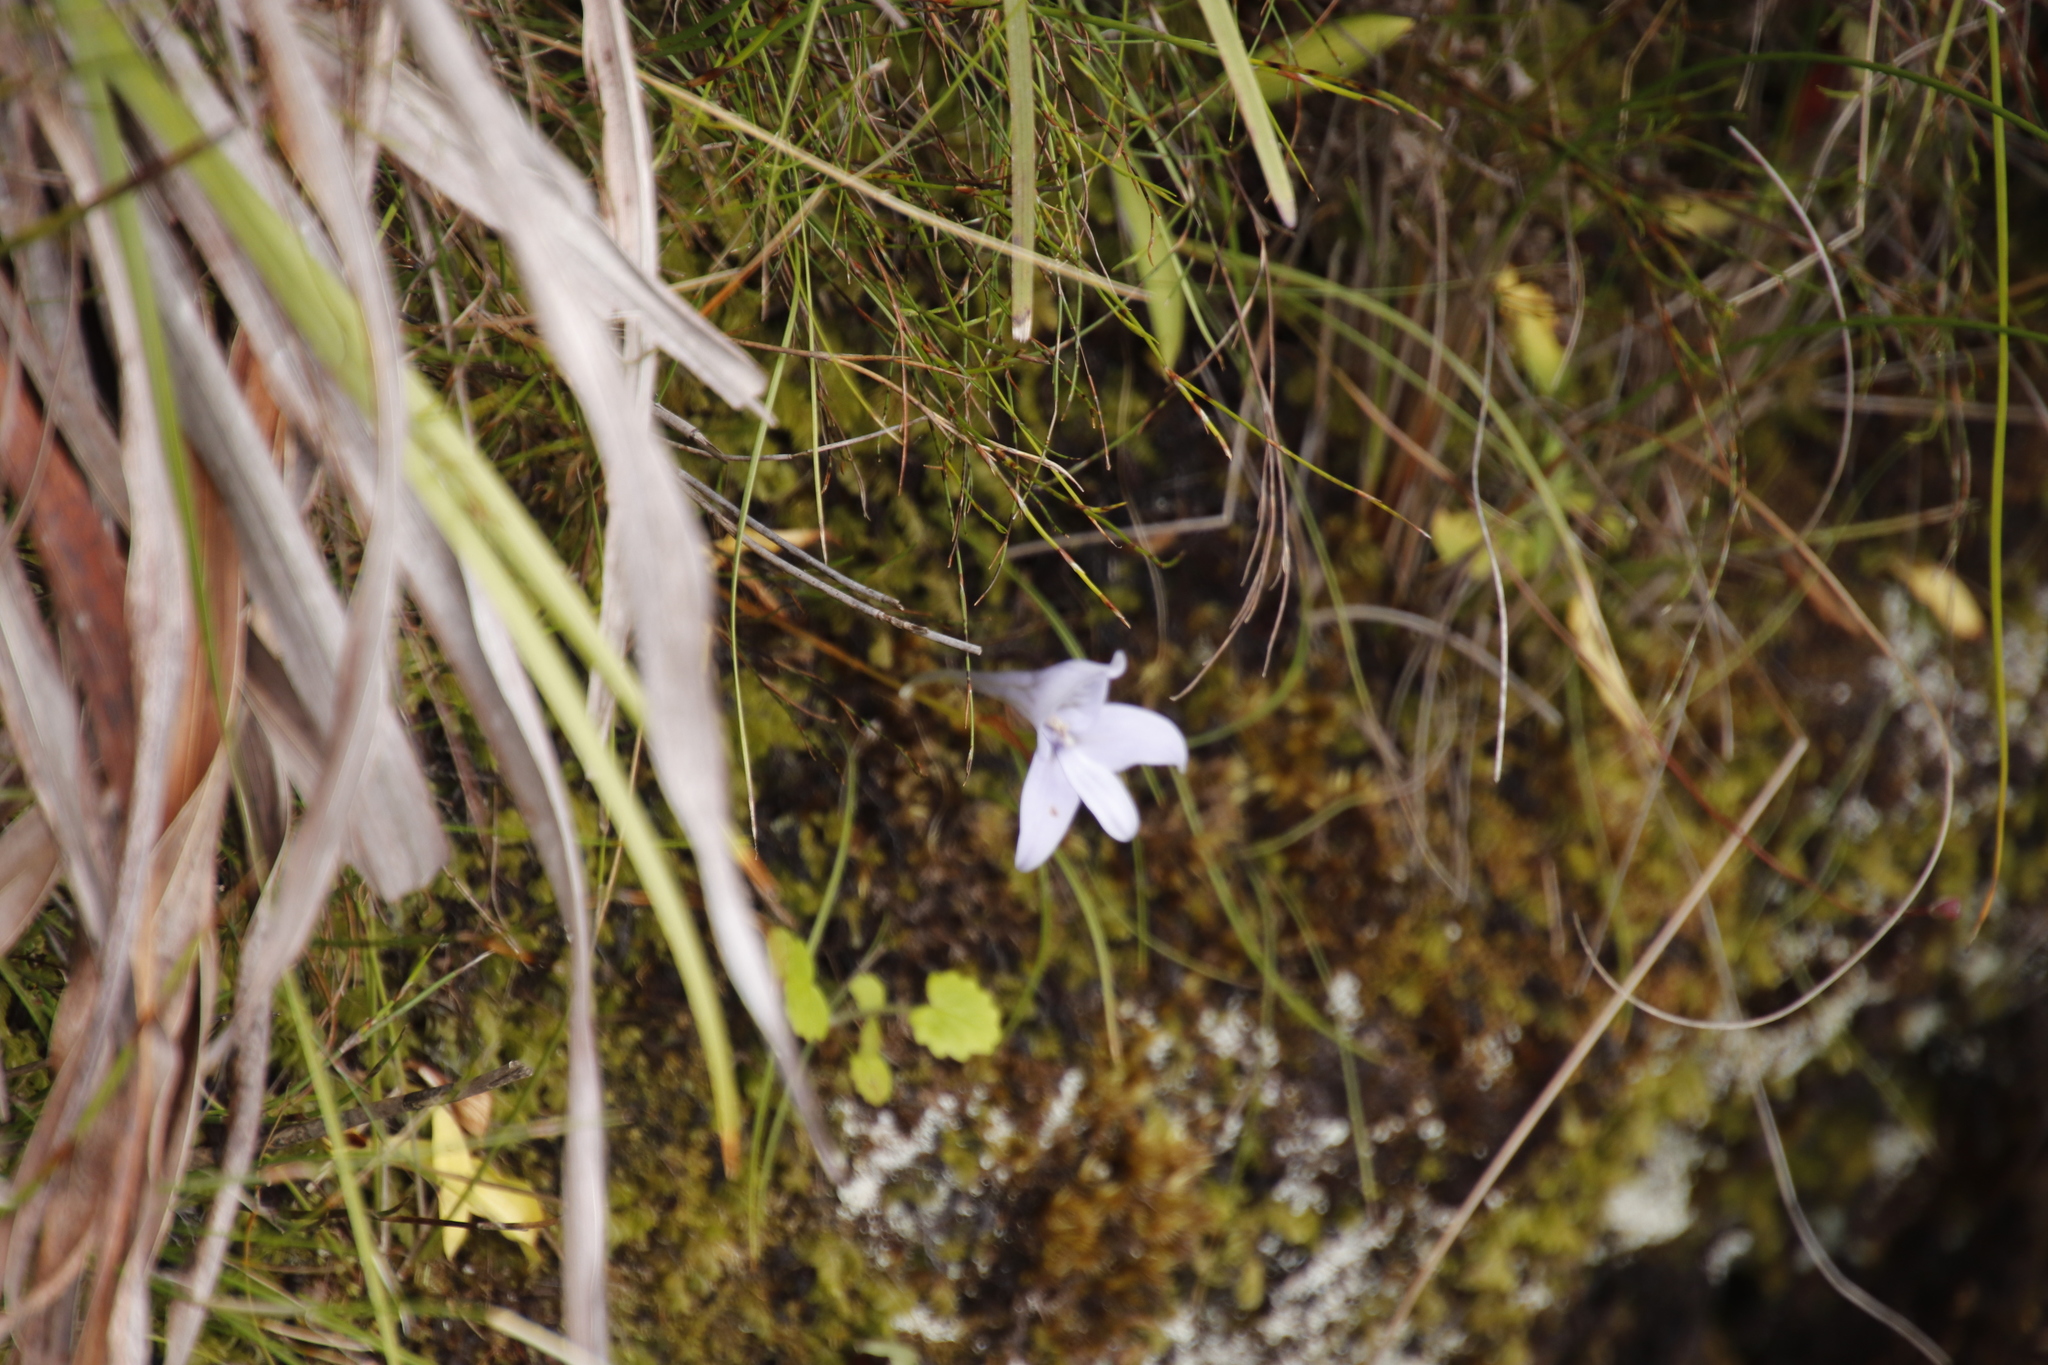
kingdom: Plantae
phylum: Tracheophyta
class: Liliopsida
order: Asparagales
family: Orchidaceae
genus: Disa
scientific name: Disa longicornu
